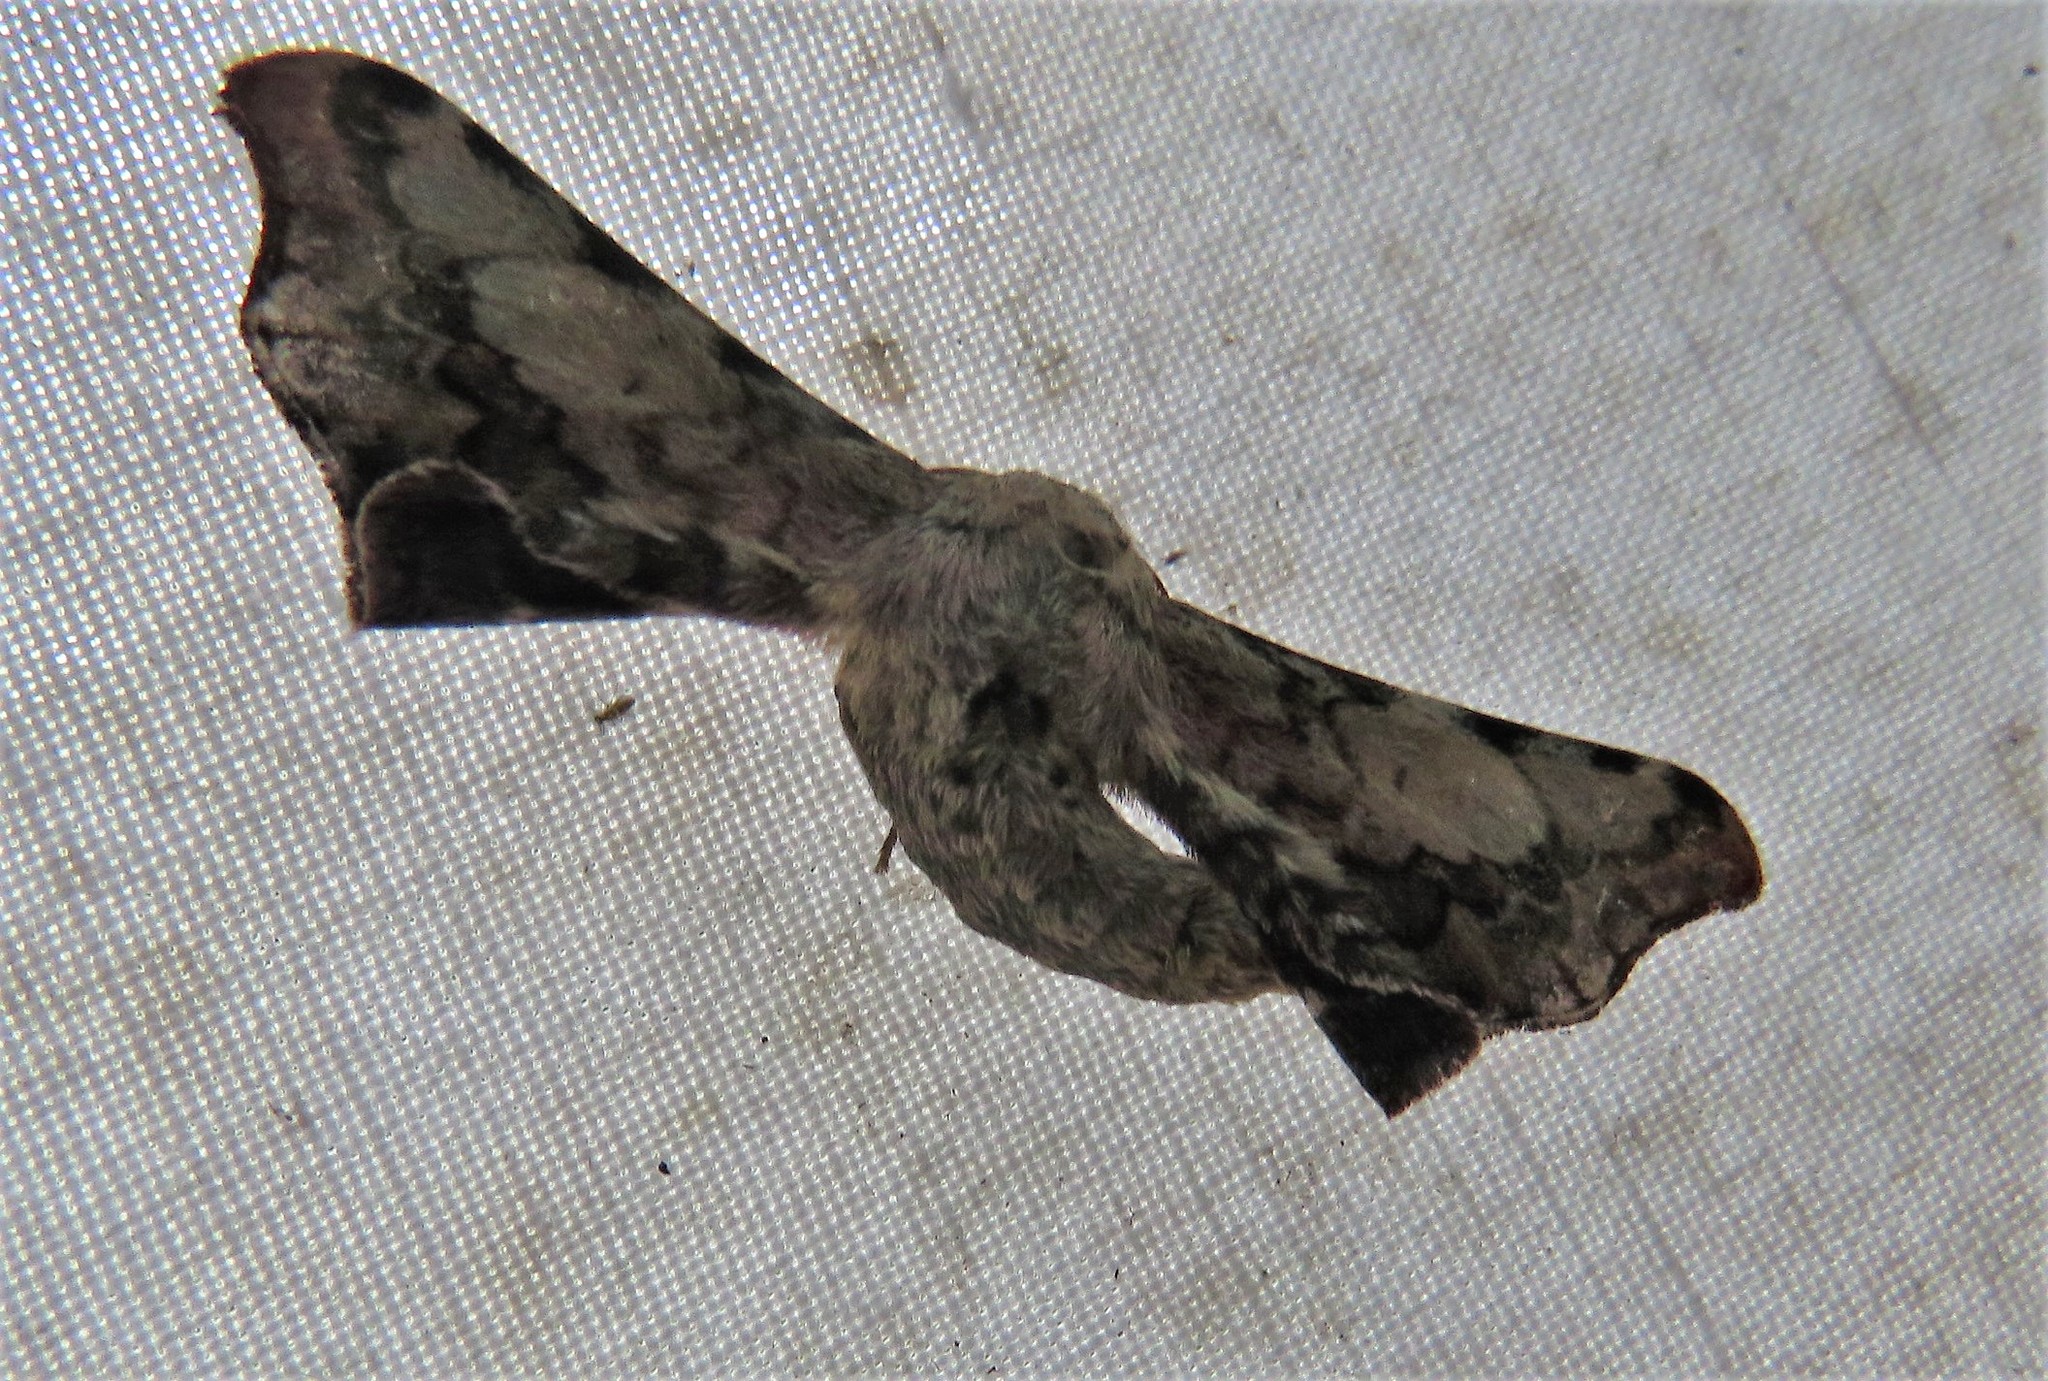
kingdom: Animalia
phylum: Arthropoda
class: Insecta
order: Lepidoptera
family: Bombycidae
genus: Quentalia
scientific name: Quentalia melchthala
